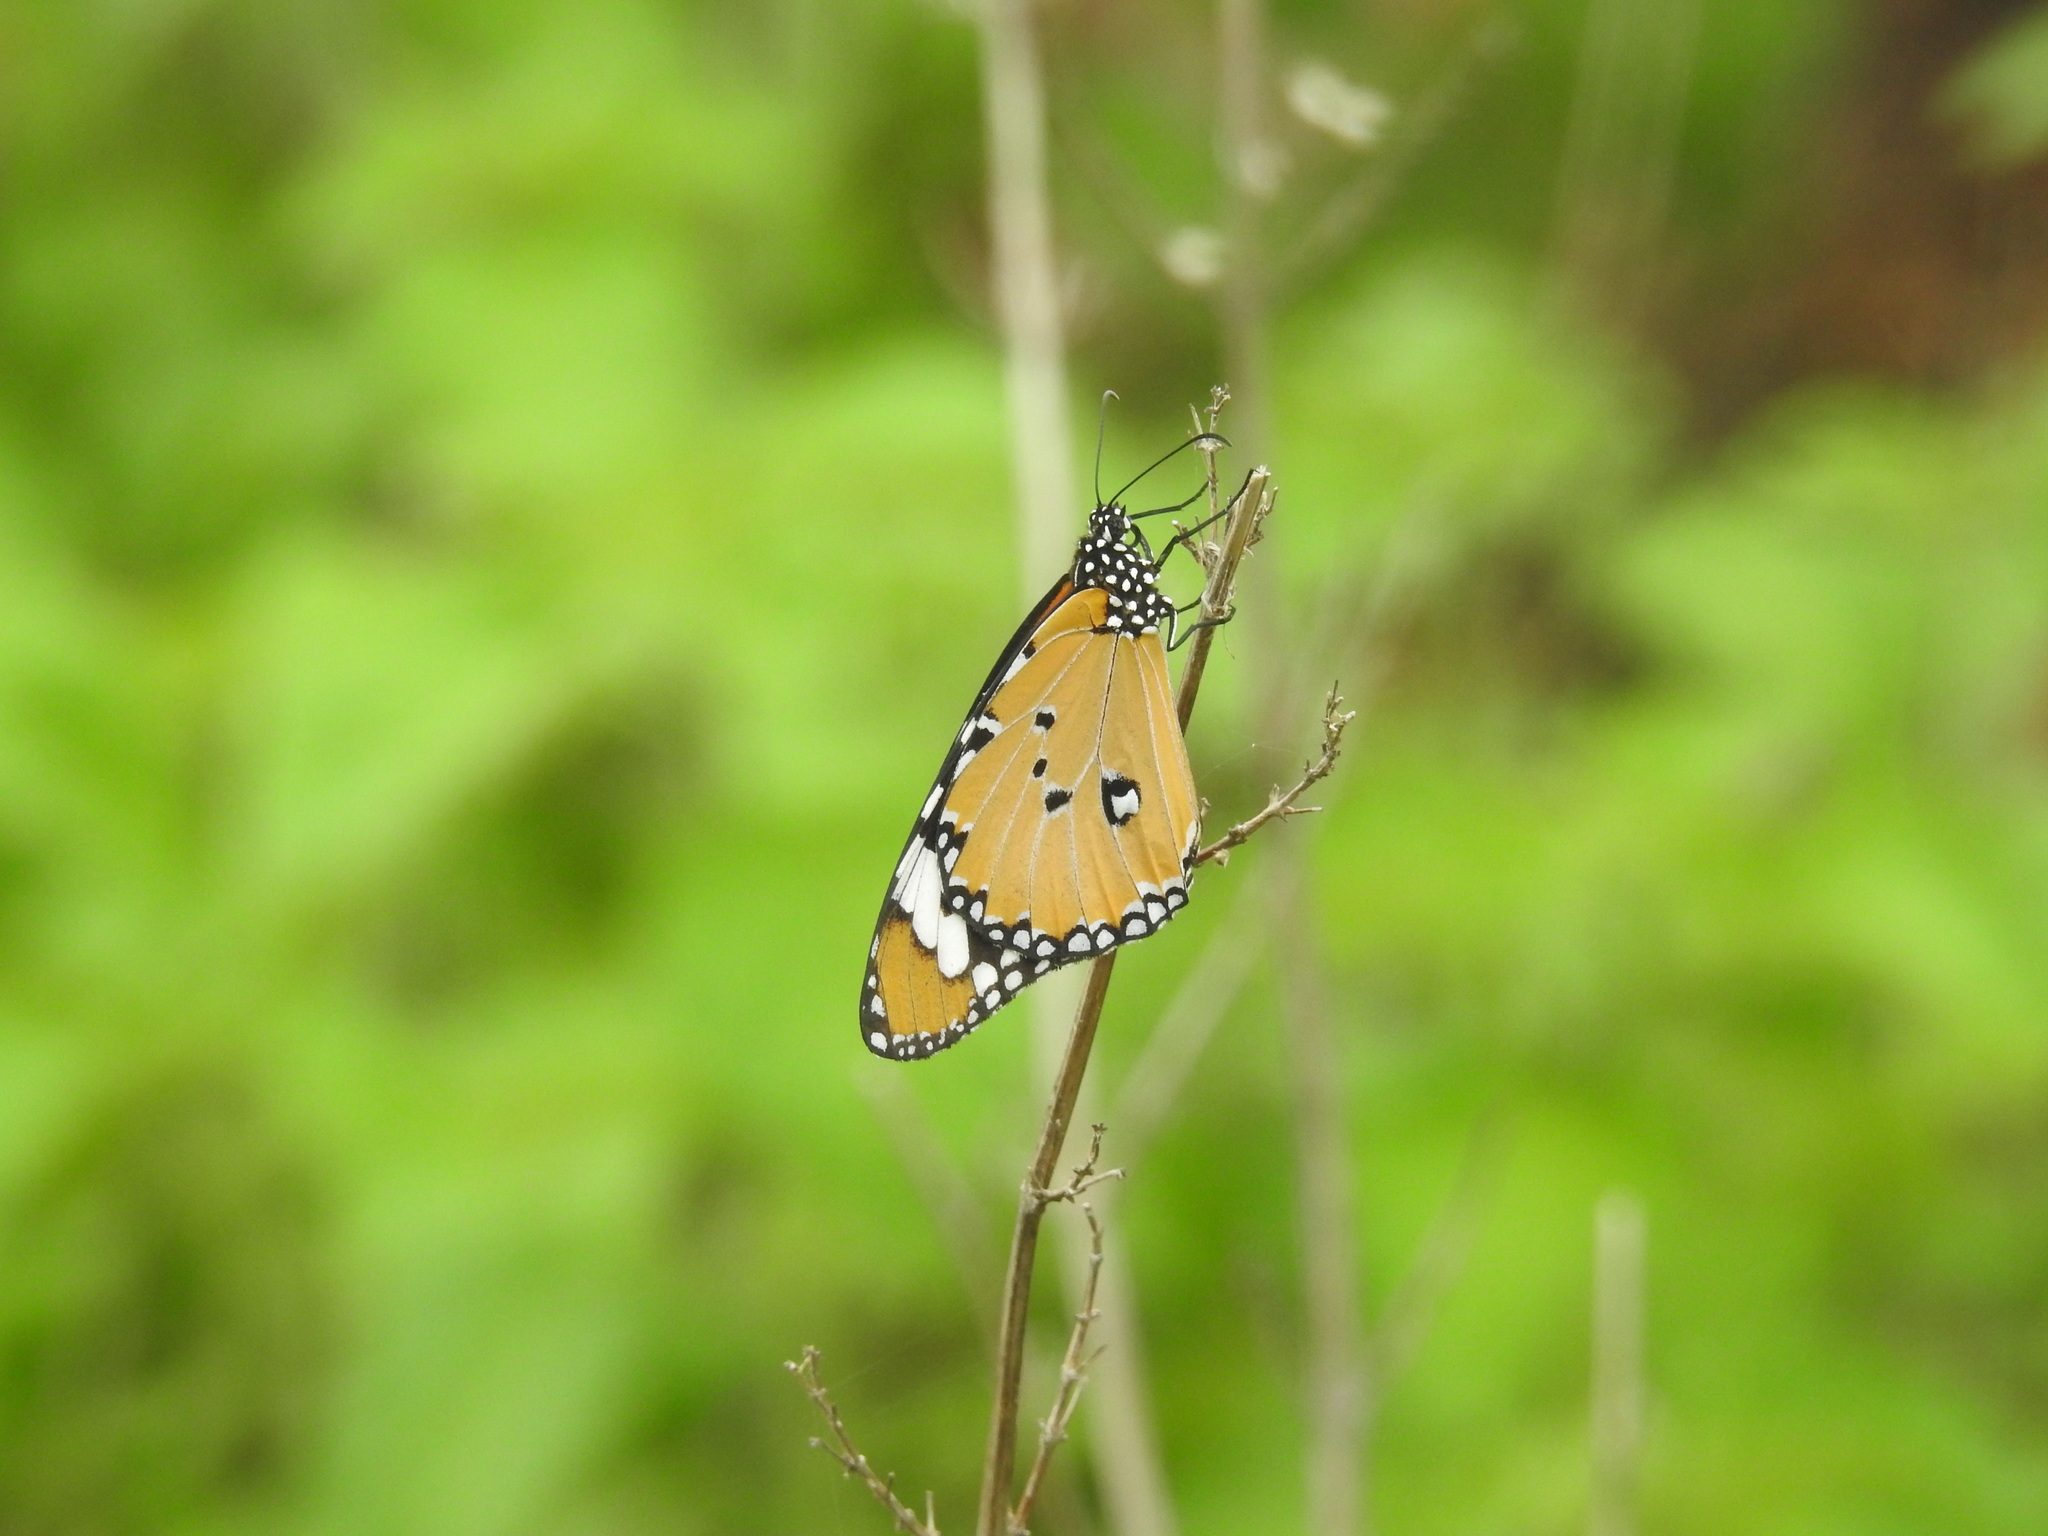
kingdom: Animalia
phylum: Arthropoda
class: Insecta
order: Lepidoptera
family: Nymphalidae
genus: Danaus
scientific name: Danaus chrysippus
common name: Plain tiger
